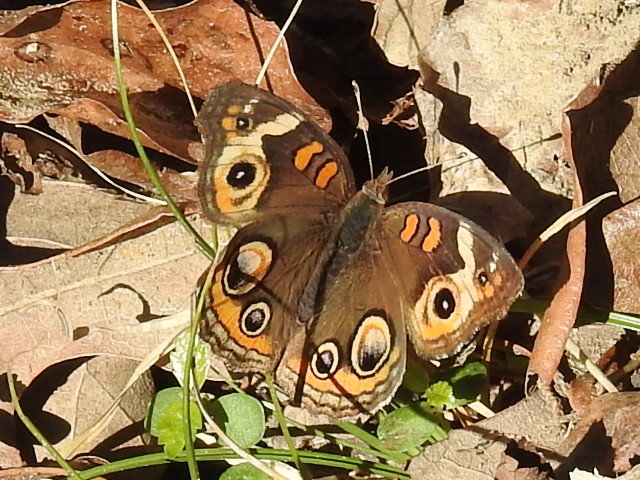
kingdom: Animalia
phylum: Arthropoda
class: Insecta
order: Lepidoptera
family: Nymphalidae
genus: Junonia
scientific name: Junonia coenia
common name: Common buckeye
